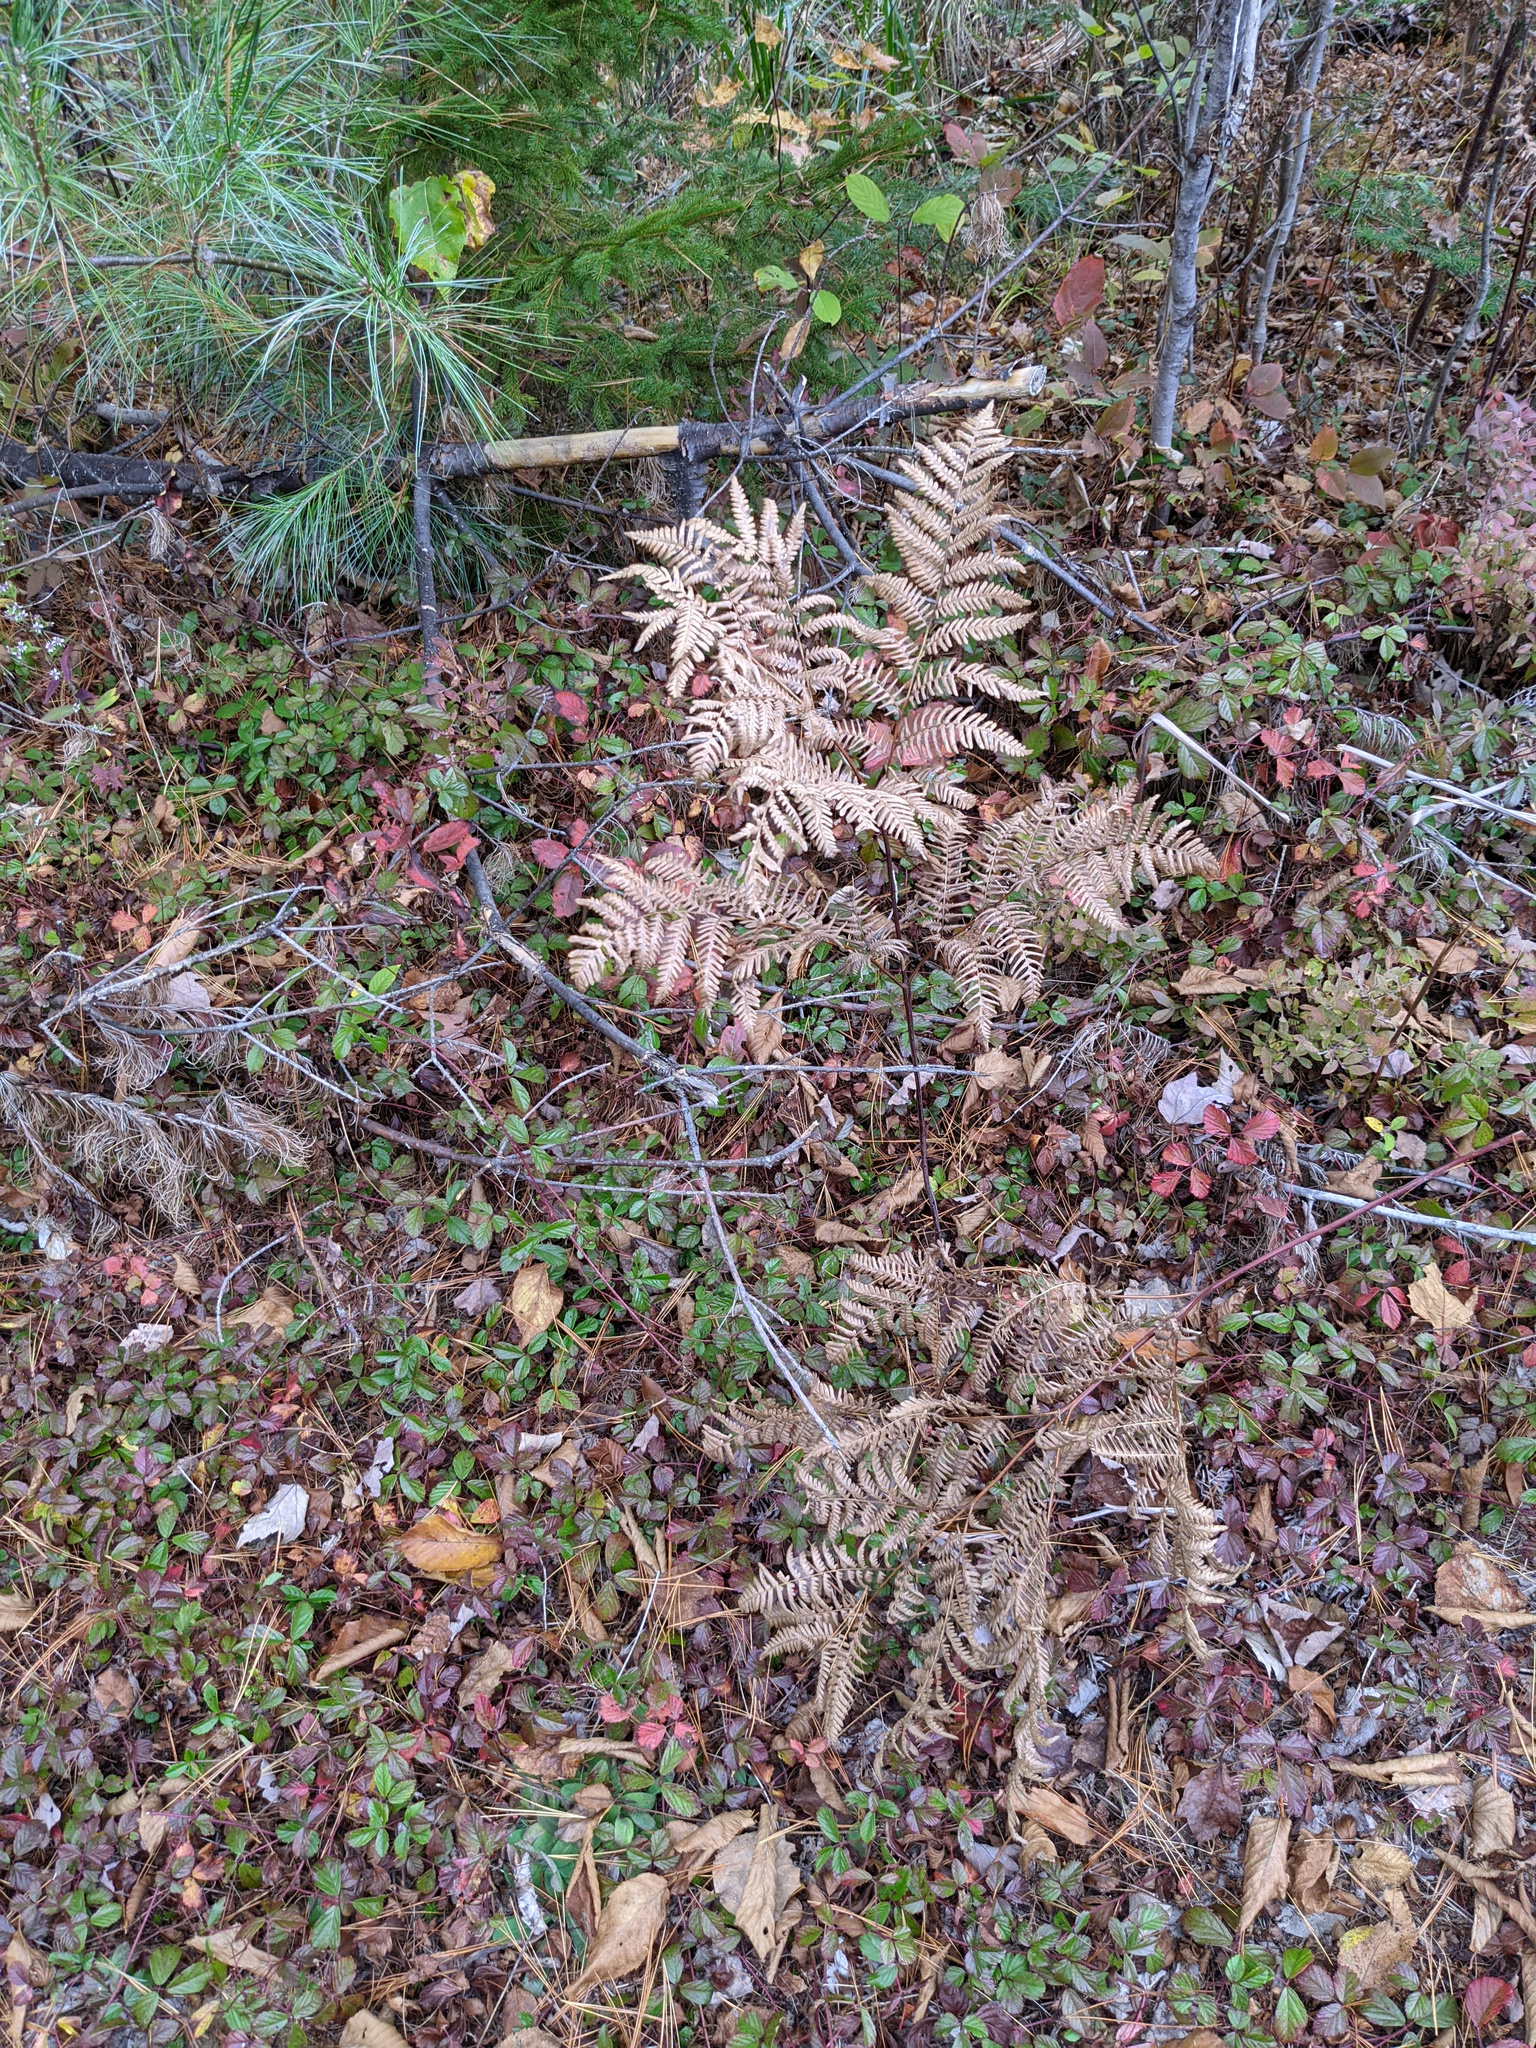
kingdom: Plantae
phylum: Tracheophyta
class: Polypodiopsida
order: Polypodiales
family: Dennstaedtiaceae
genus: Pteridium
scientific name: Pteridium aquilinum
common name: Bracken
